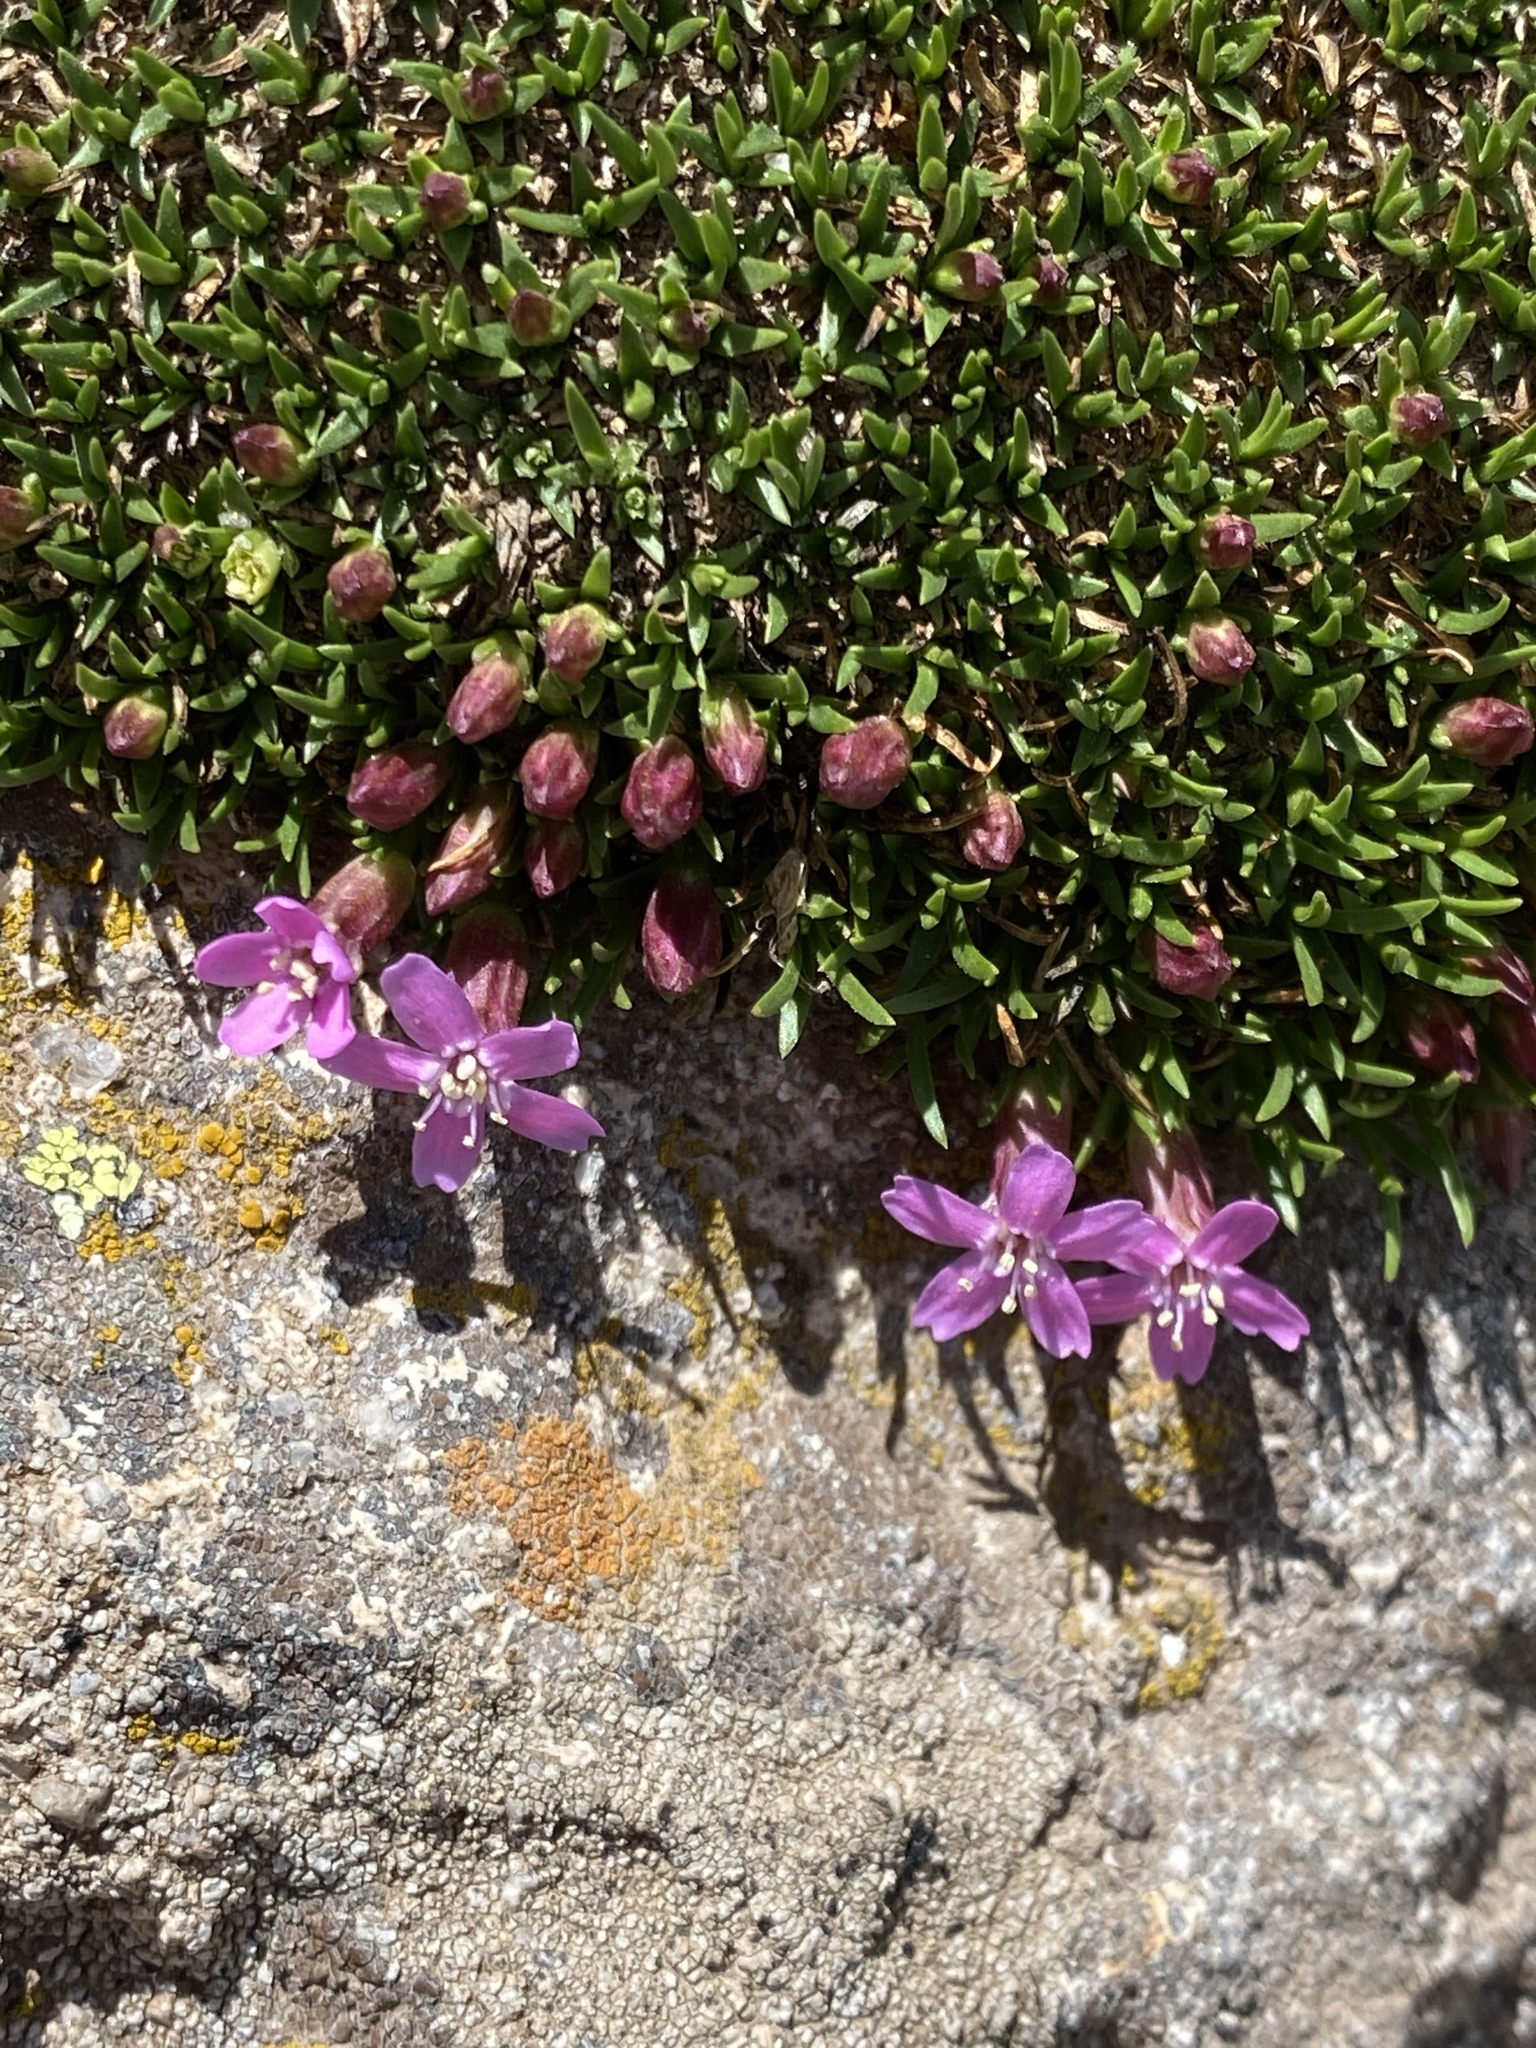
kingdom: Plantae
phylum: Tracheophyta
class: Magnoliopsida
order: Caryophyllales
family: Caryophyllaceae
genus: Silene
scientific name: Silene acaulis
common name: Moss campion
